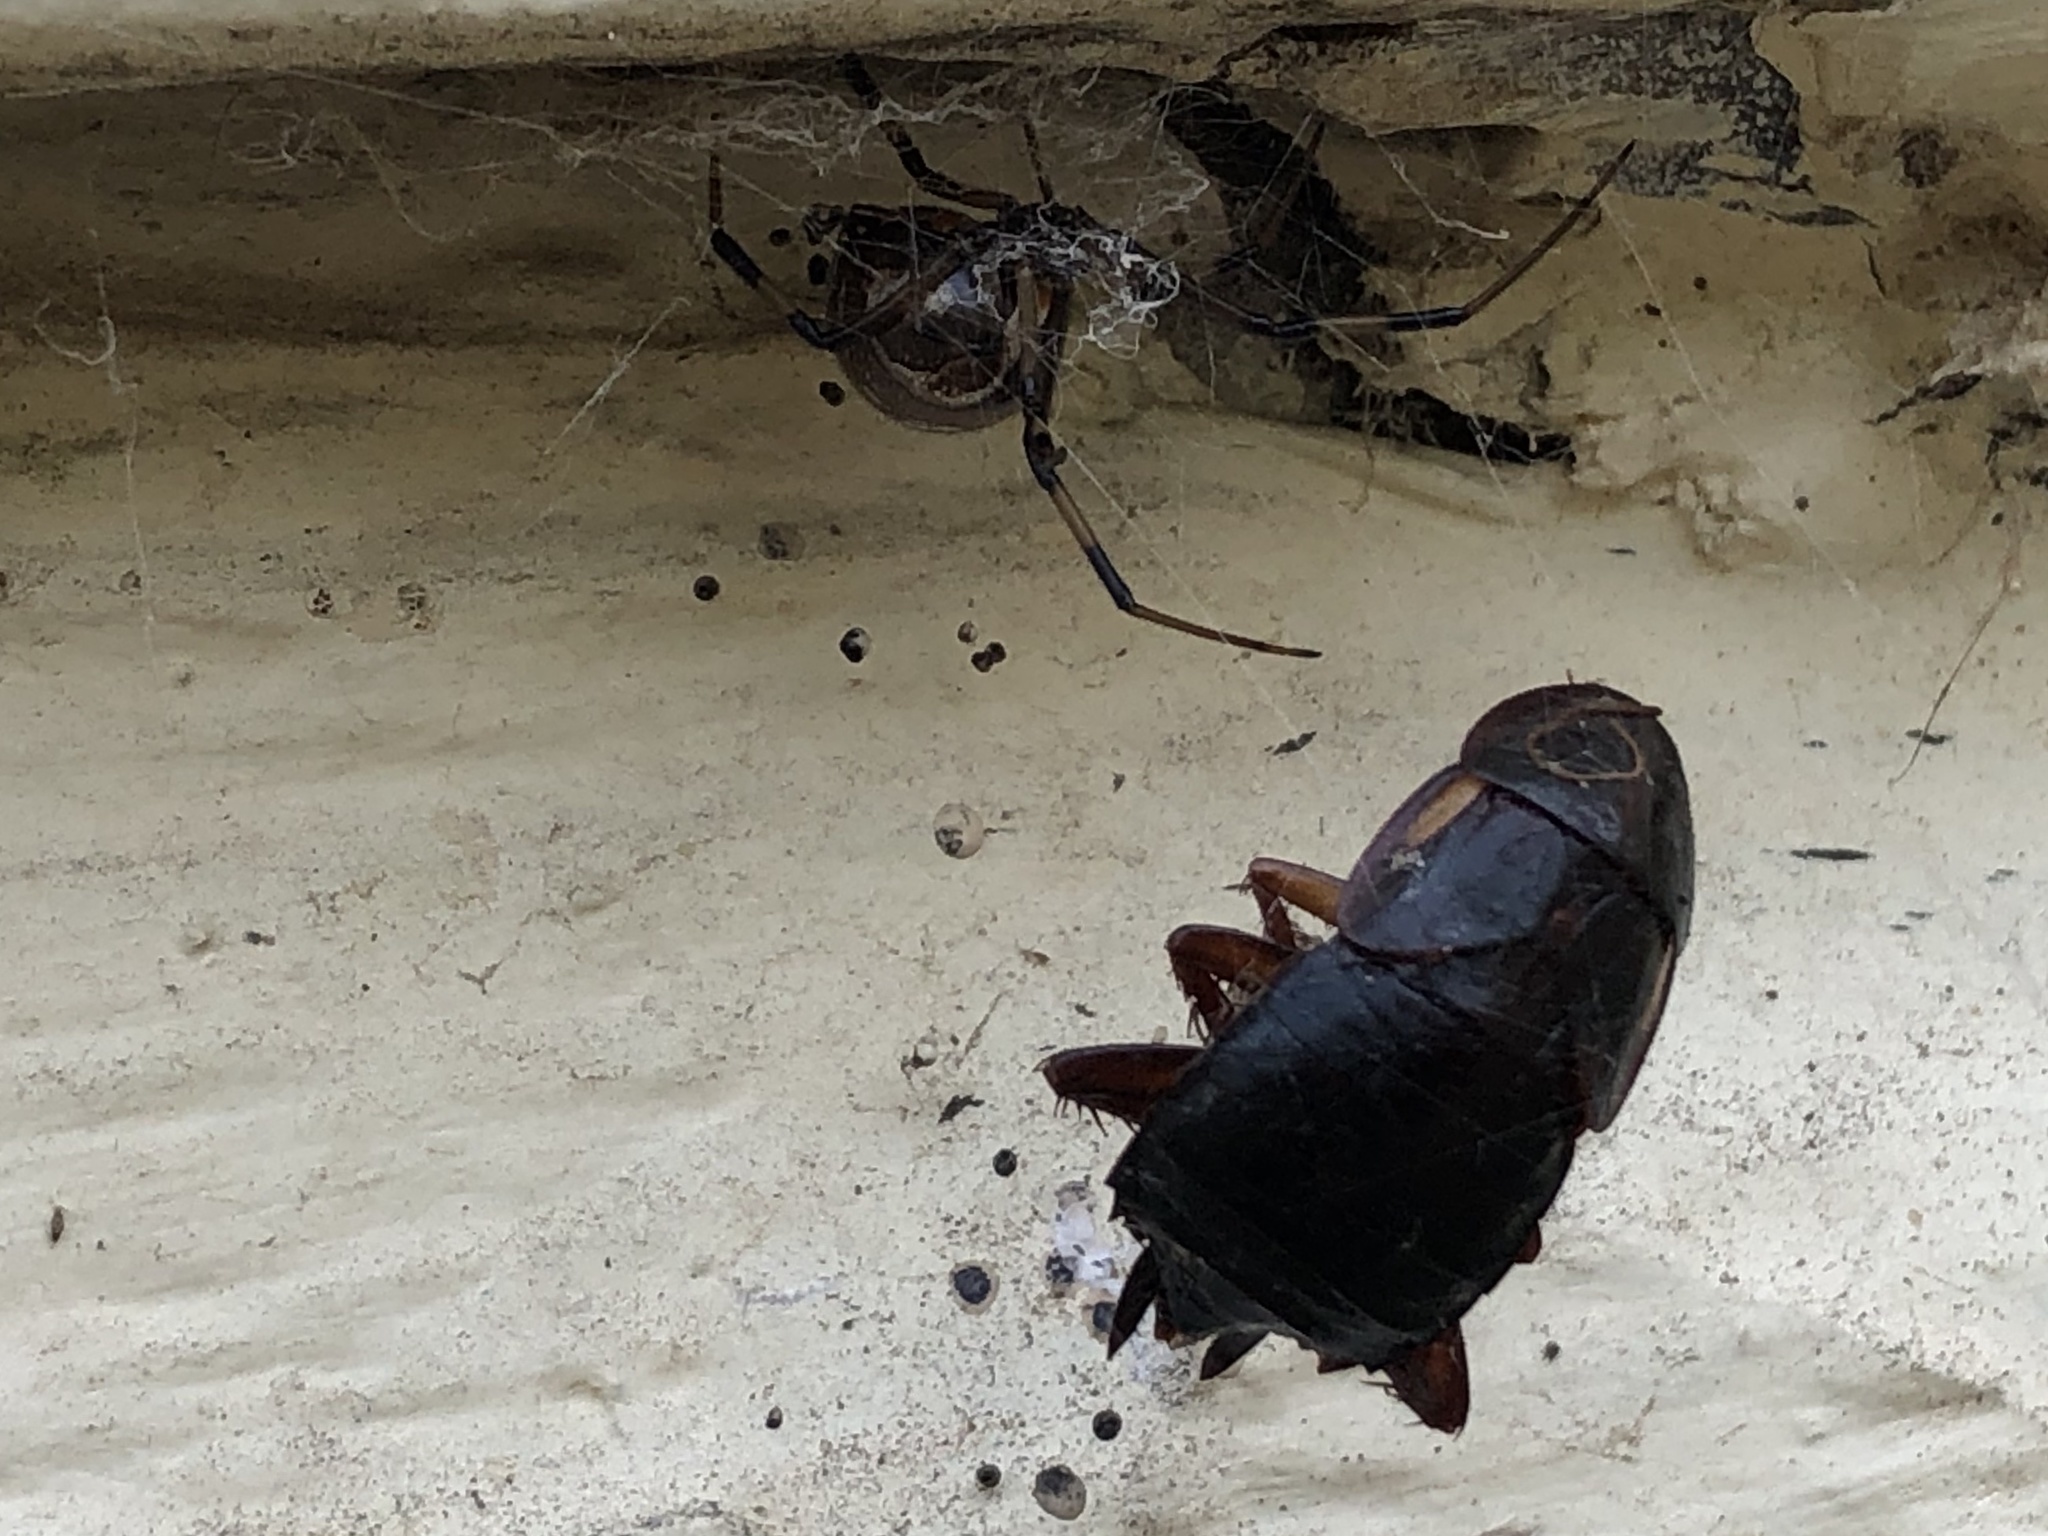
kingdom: Animalia
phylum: Arthropoda
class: Insecta
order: Blattodea
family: Blattidae
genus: Periplaneta
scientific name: Periplaneta lateralis
